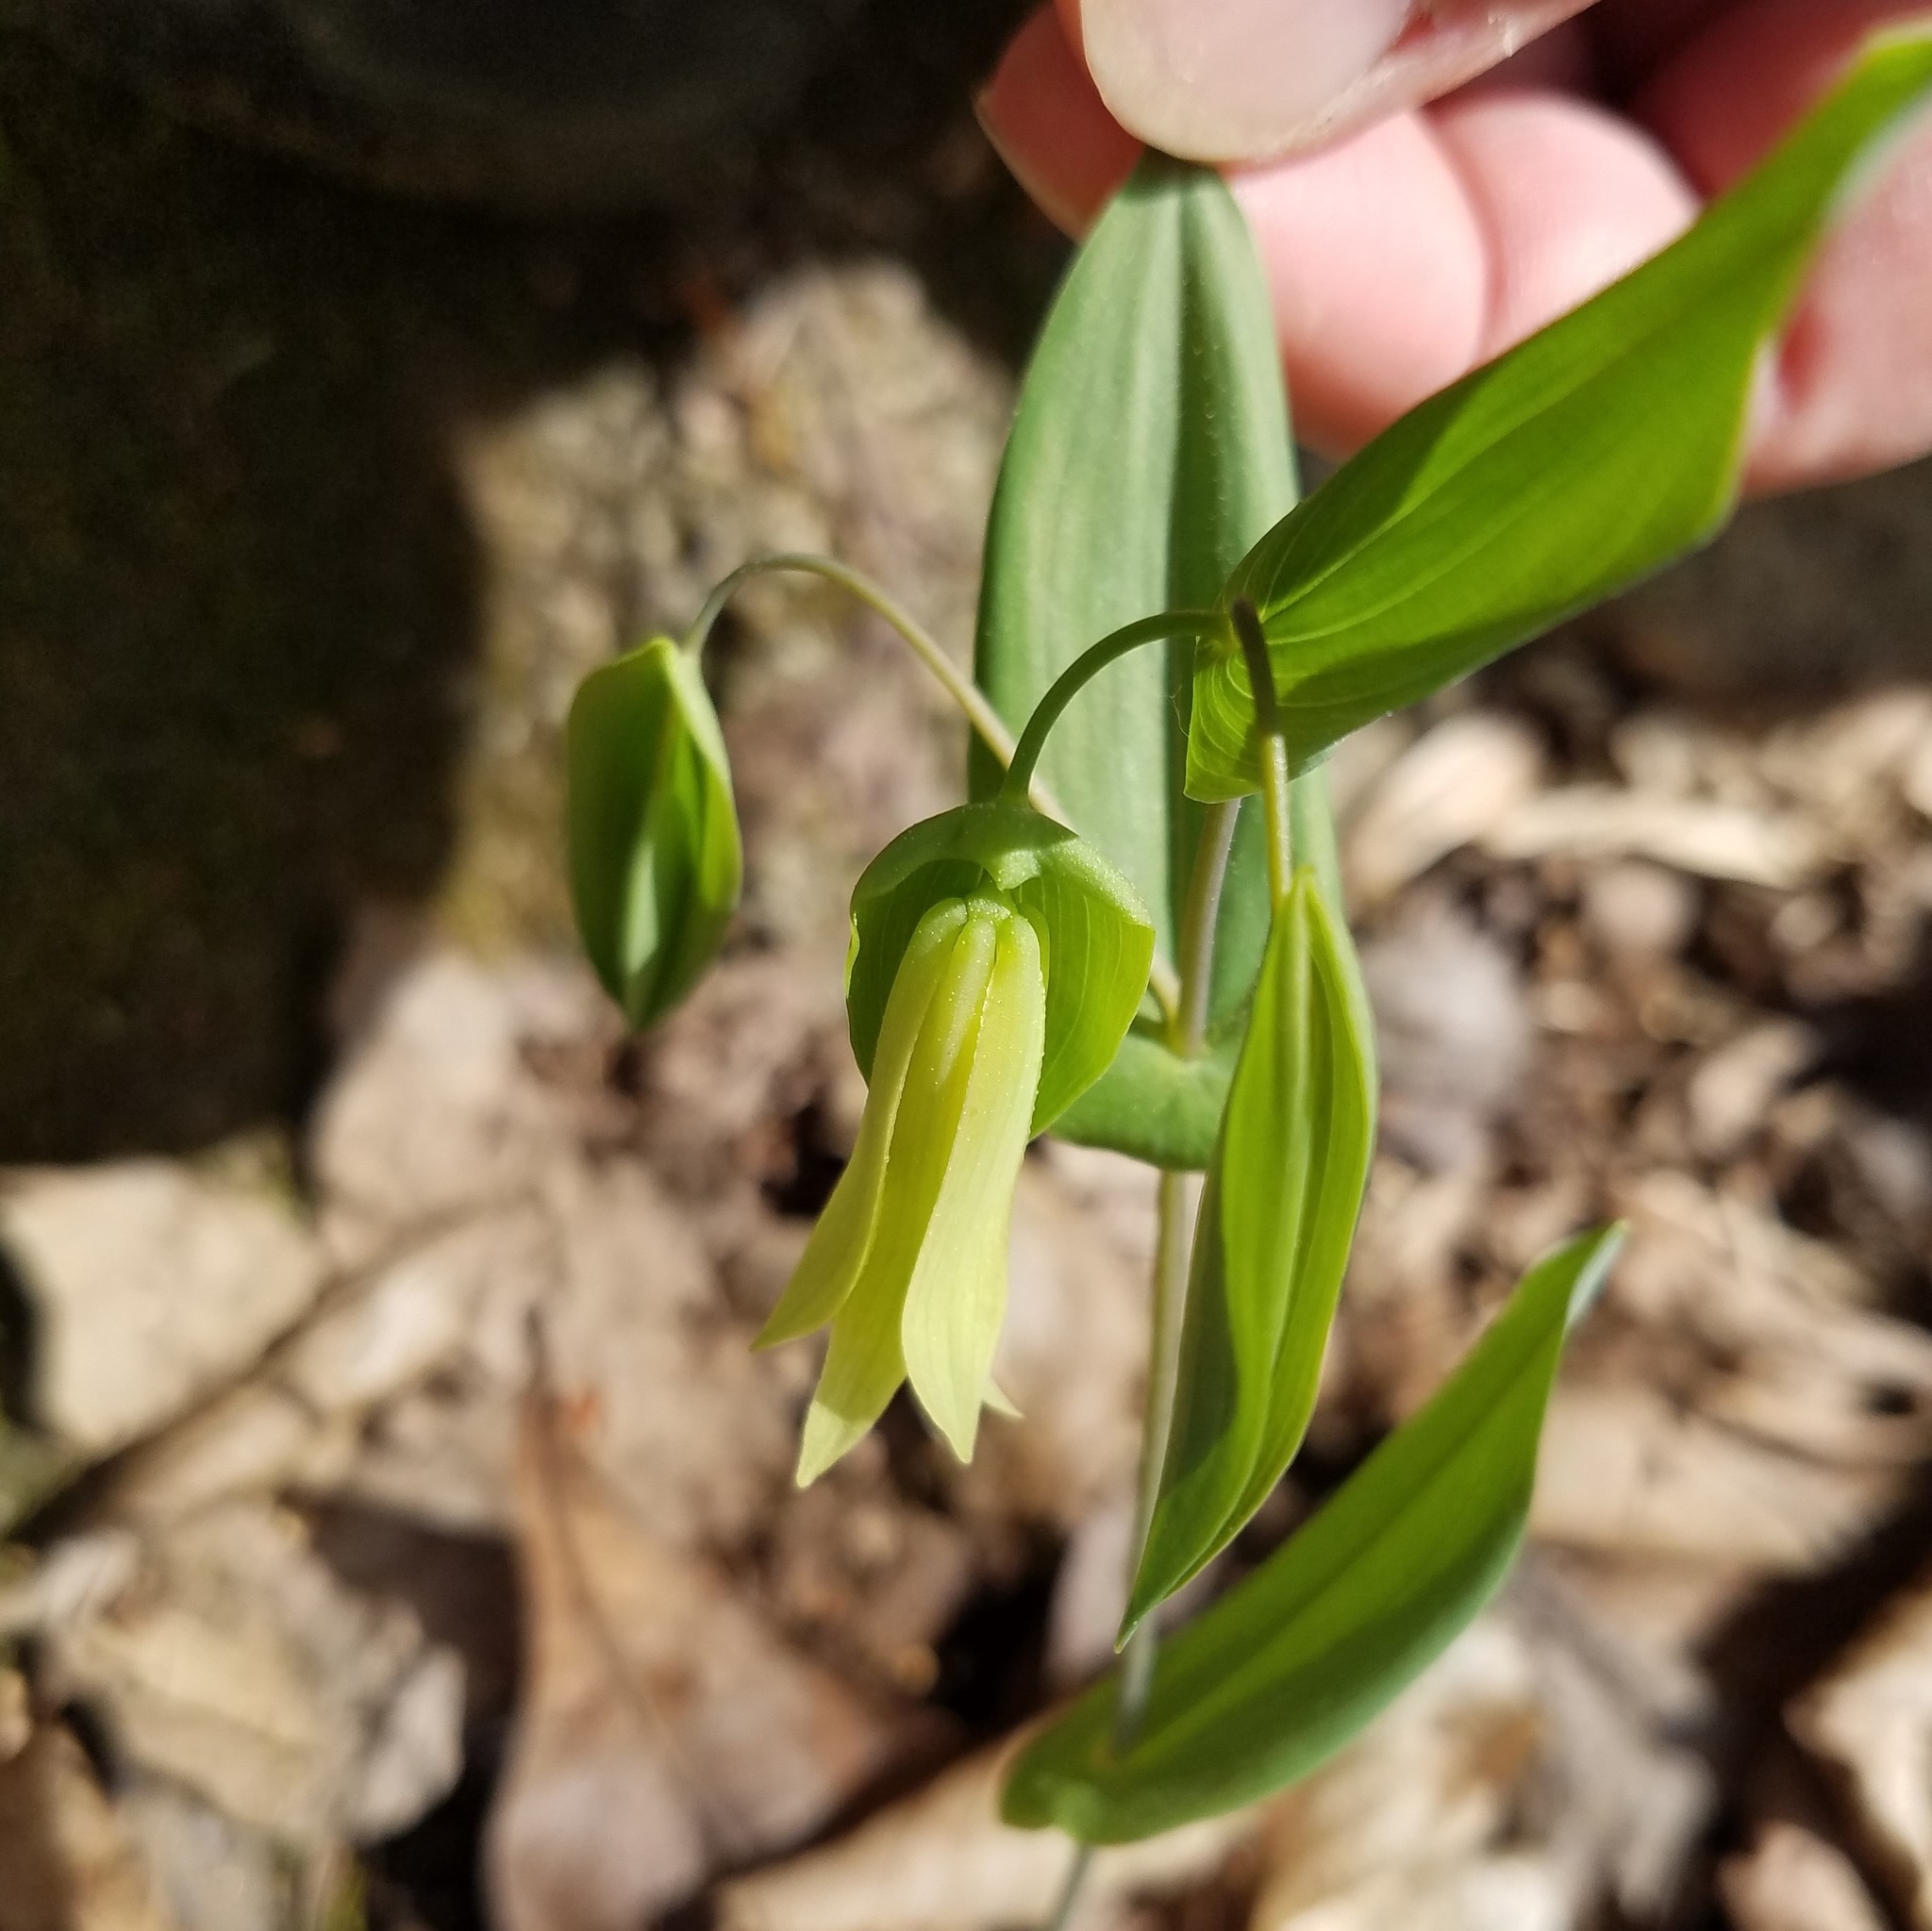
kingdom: Plantae
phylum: Tracheophyta
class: Liliopsida
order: Liliales
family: Colchicaceae
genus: Uvularia
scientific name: Uvularia perfoliata
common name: Perfoliate bellwort
